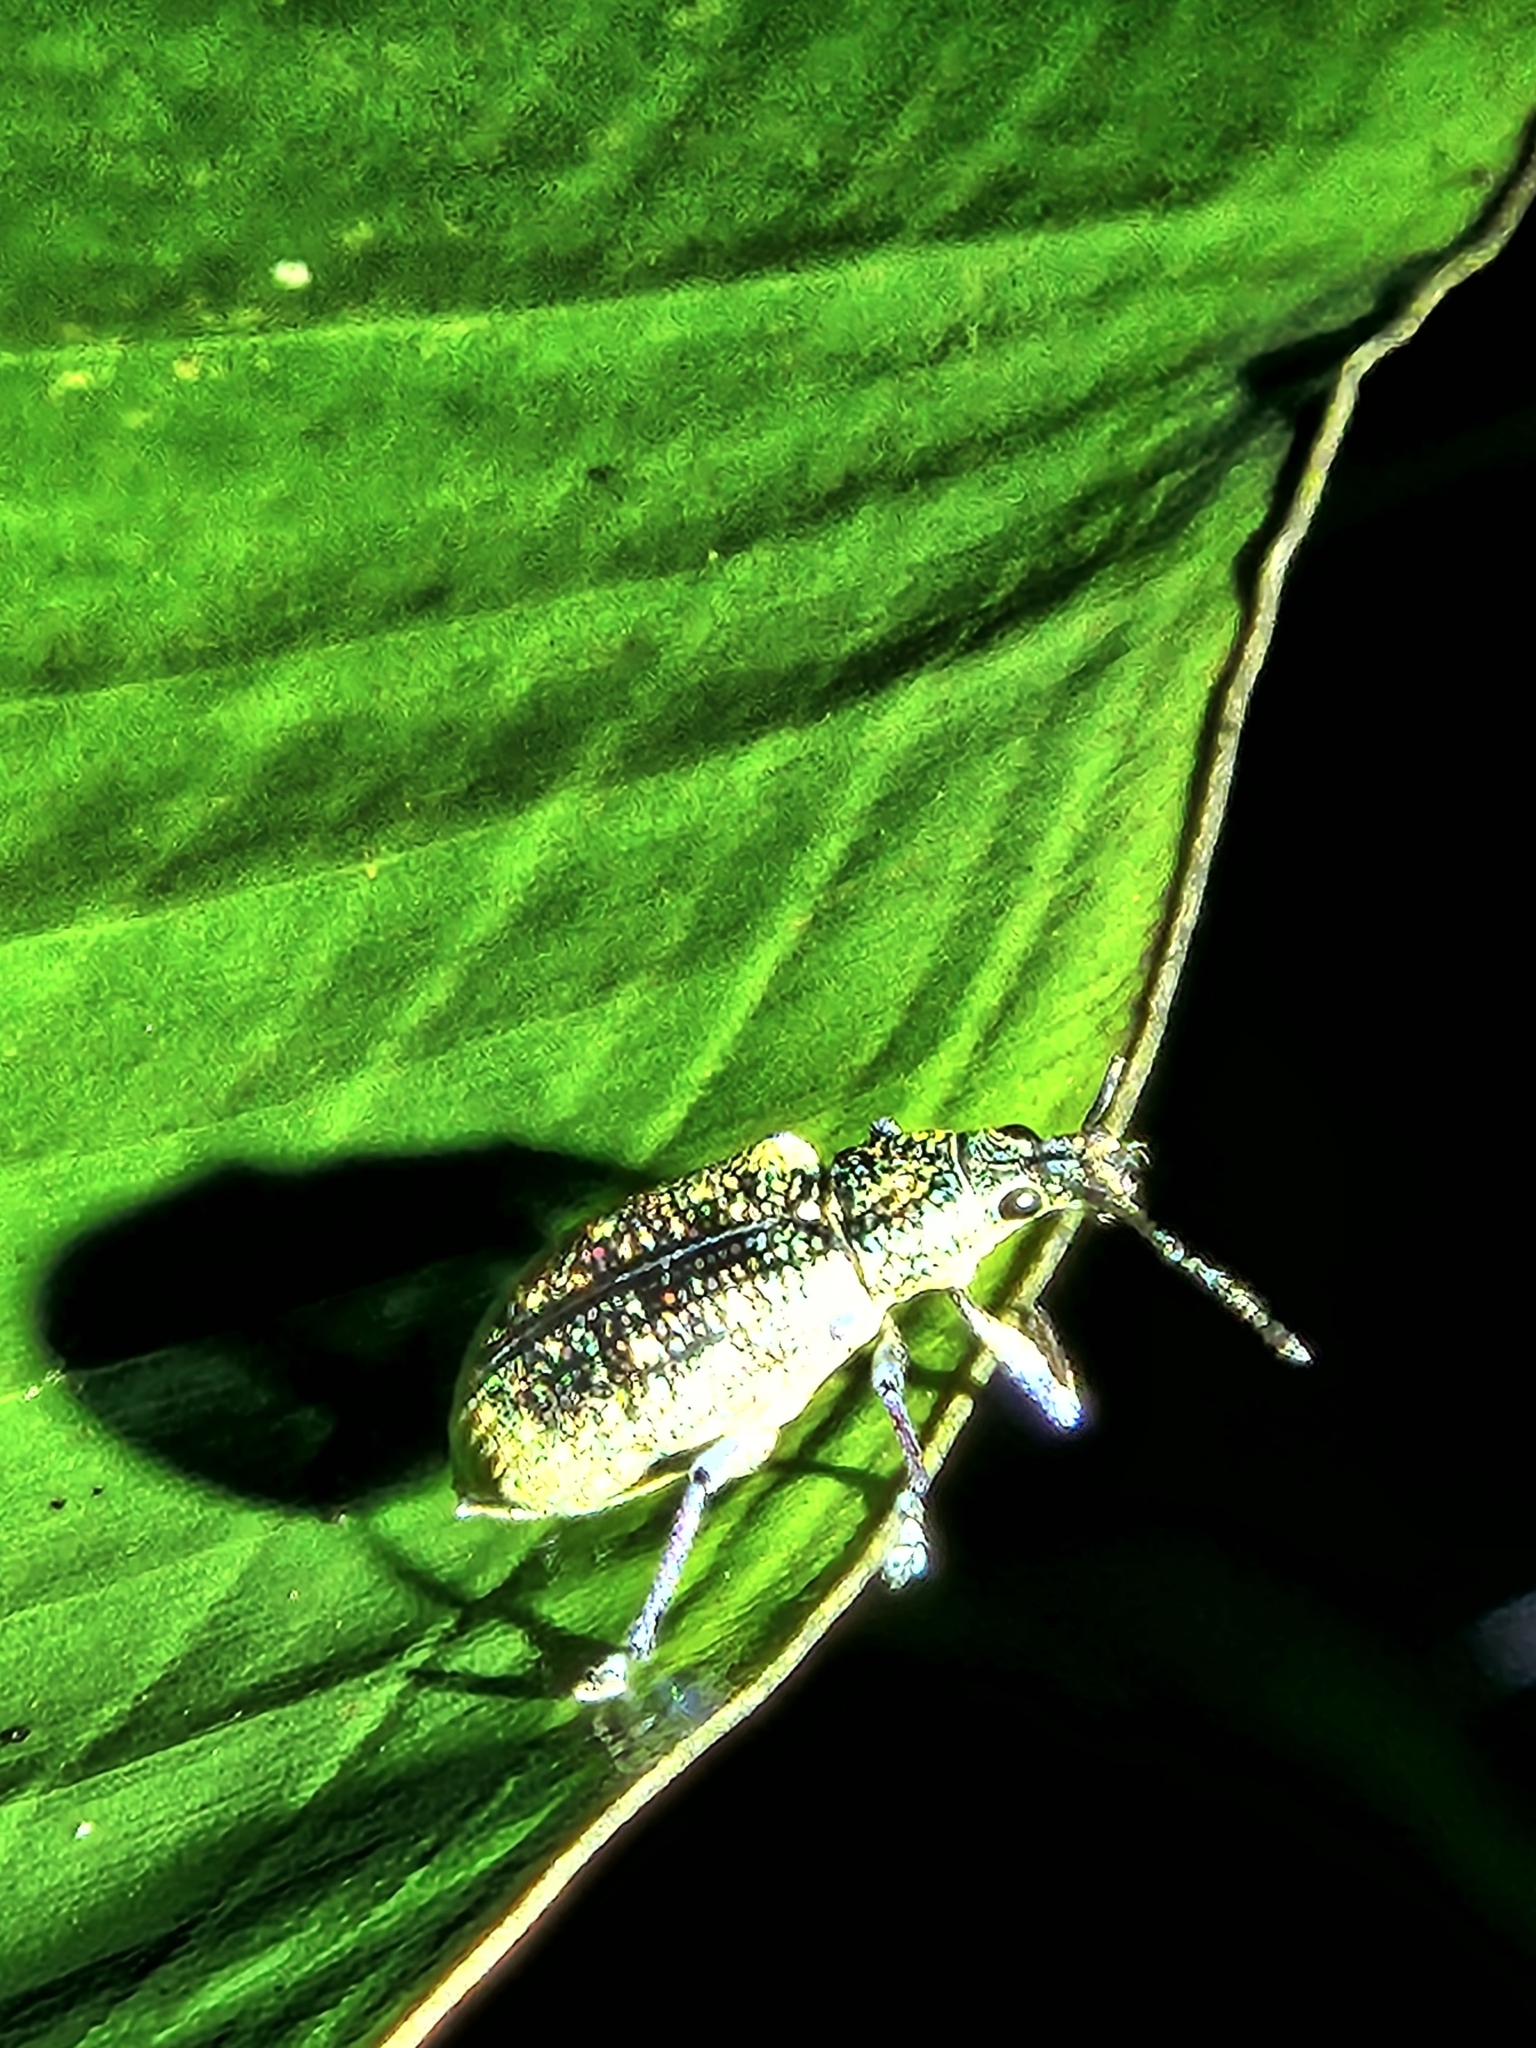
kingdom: Animalia
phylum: Arthropoda
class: Insecta
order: Coleoptera
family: Curculionidae
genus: Exophthalmus
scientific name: Exophthalmus jekelianus
